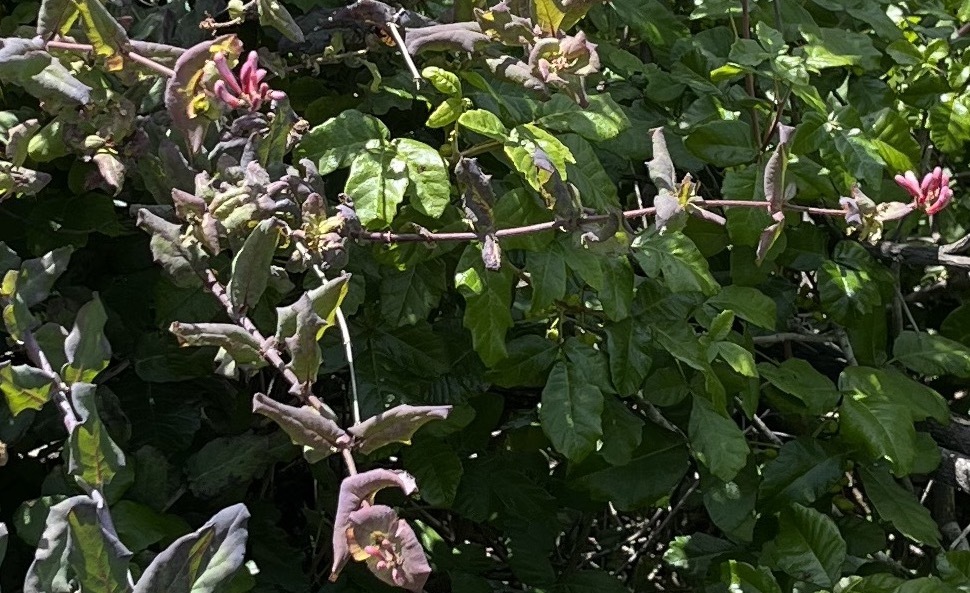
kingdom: Plantae
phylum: Tracheophyta
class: Magnoliopsida
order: Dipsacales
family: Caprifoliaceae
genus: Lonicera
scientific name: Lonicera hispidula
